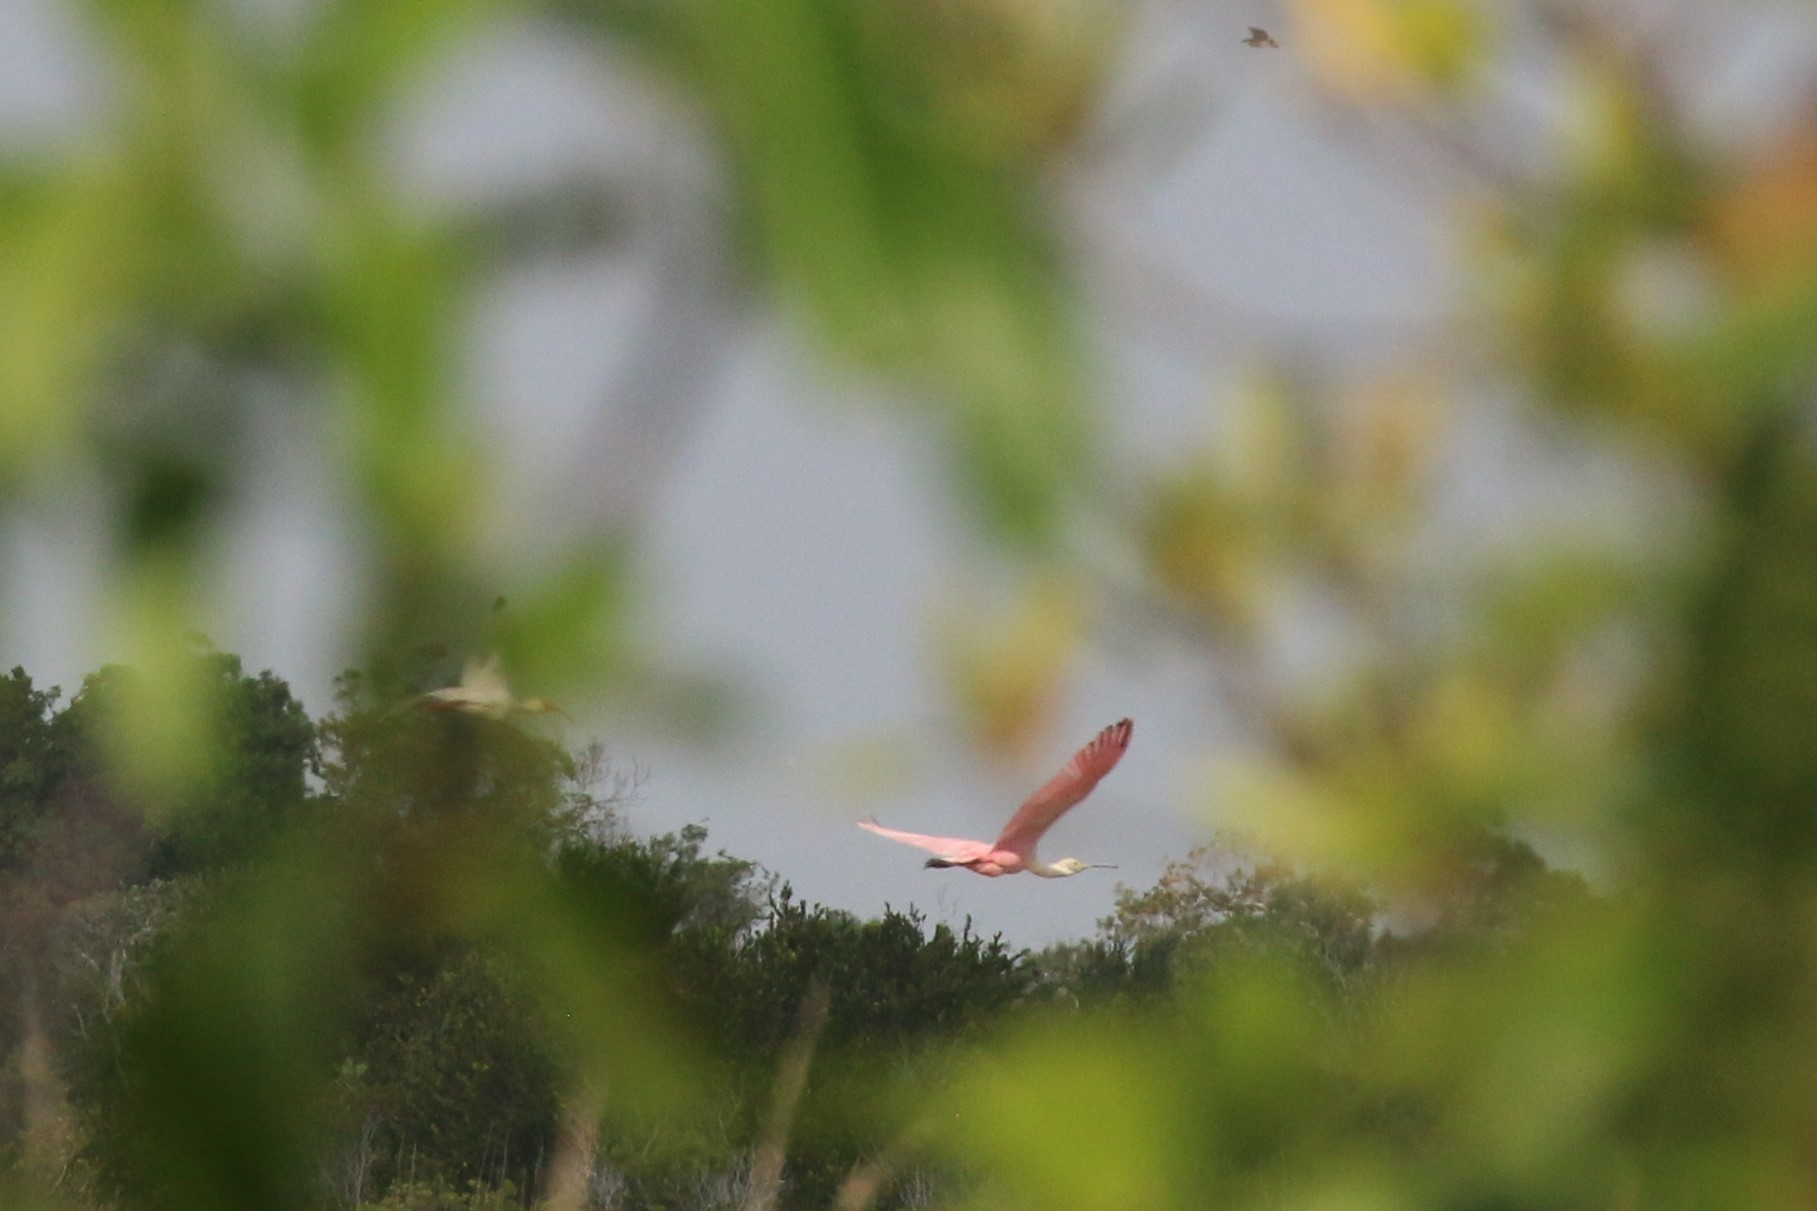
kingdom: Animalia
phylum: Chordata
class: Aves
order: Pelecaniformes
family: Threskiornithidae
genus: Platalea
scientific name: Platalea ajaja
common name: Roseate spoonbill
